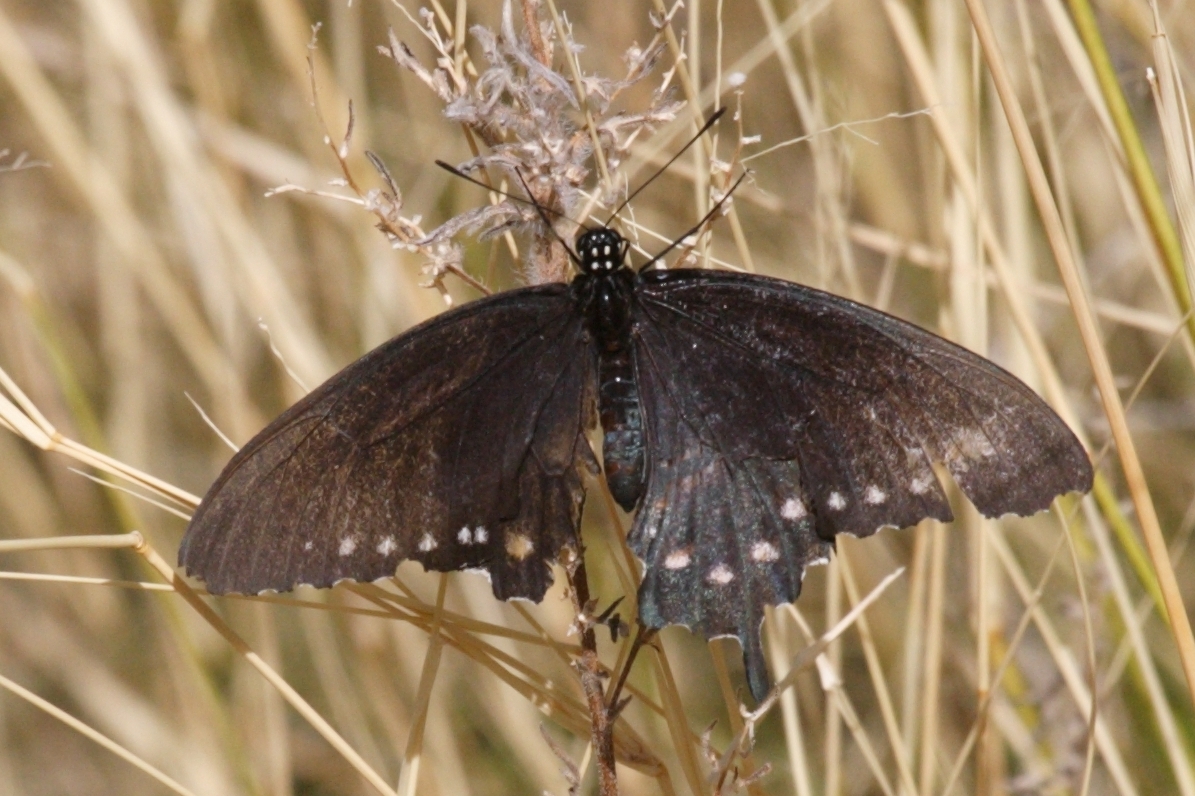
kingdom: Animalia
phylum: Arthropoda
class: Insecta
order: Lepidoptera
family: Papilionidae
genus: Battus
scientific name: Battus philenor
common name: Pipevine swallowtail
